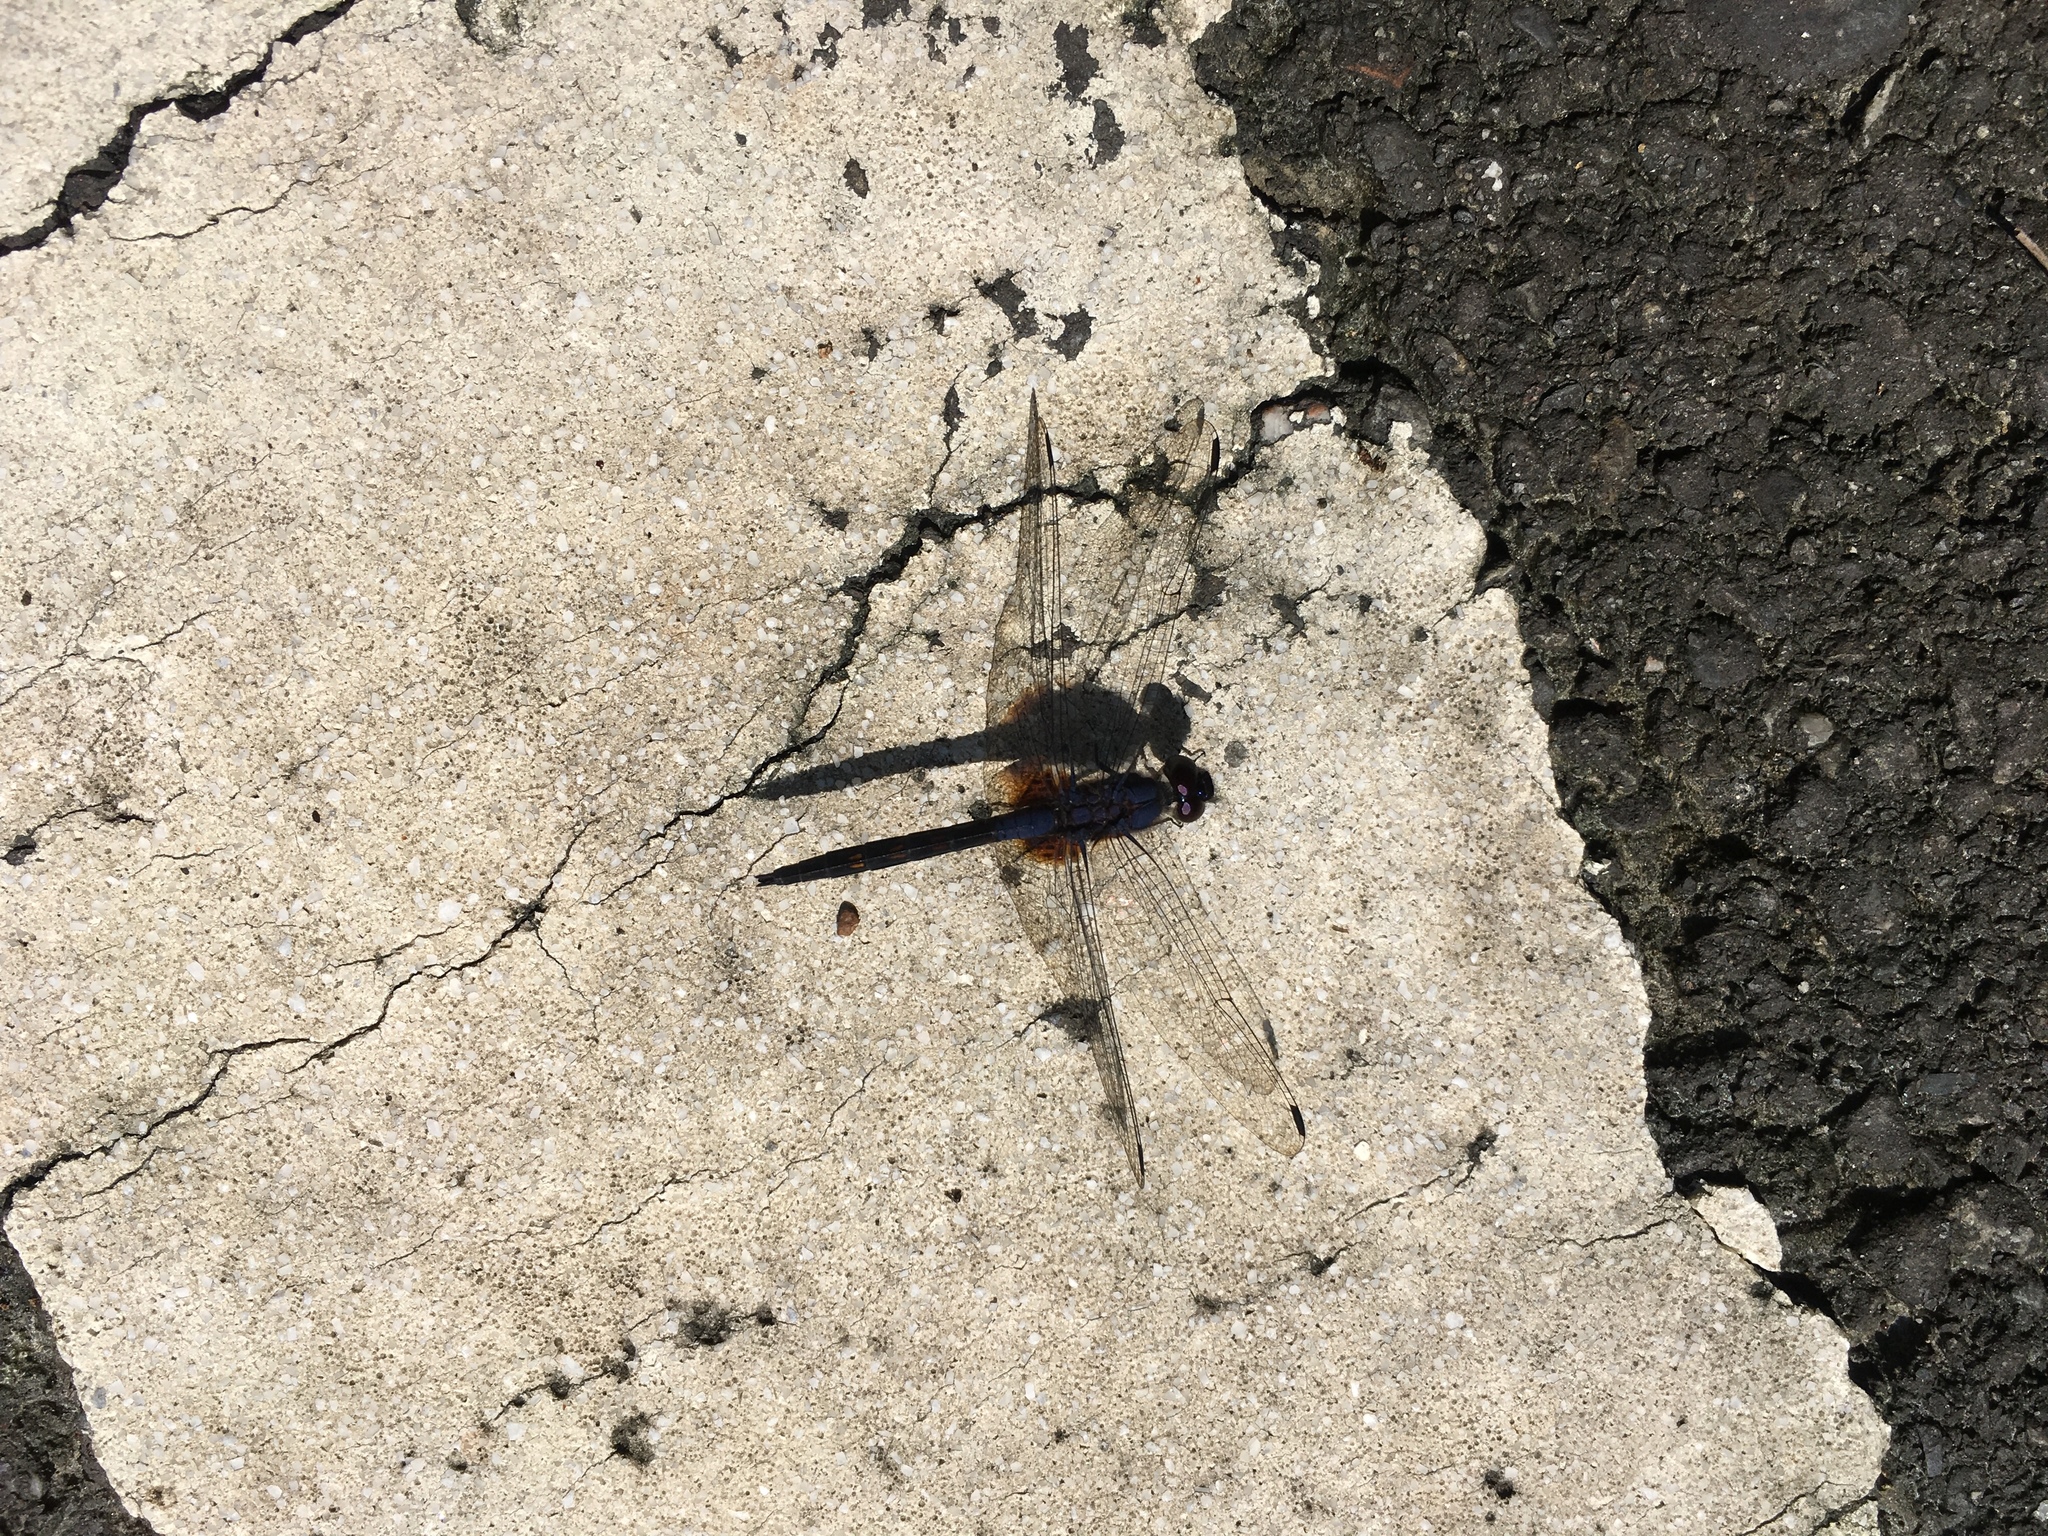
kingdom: Animalia
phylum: Arthropoda
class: Insecta
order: Odonata
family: Libellulidae
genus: Trithemis
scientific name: Trithemis festiva
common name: Indigo dropwing
